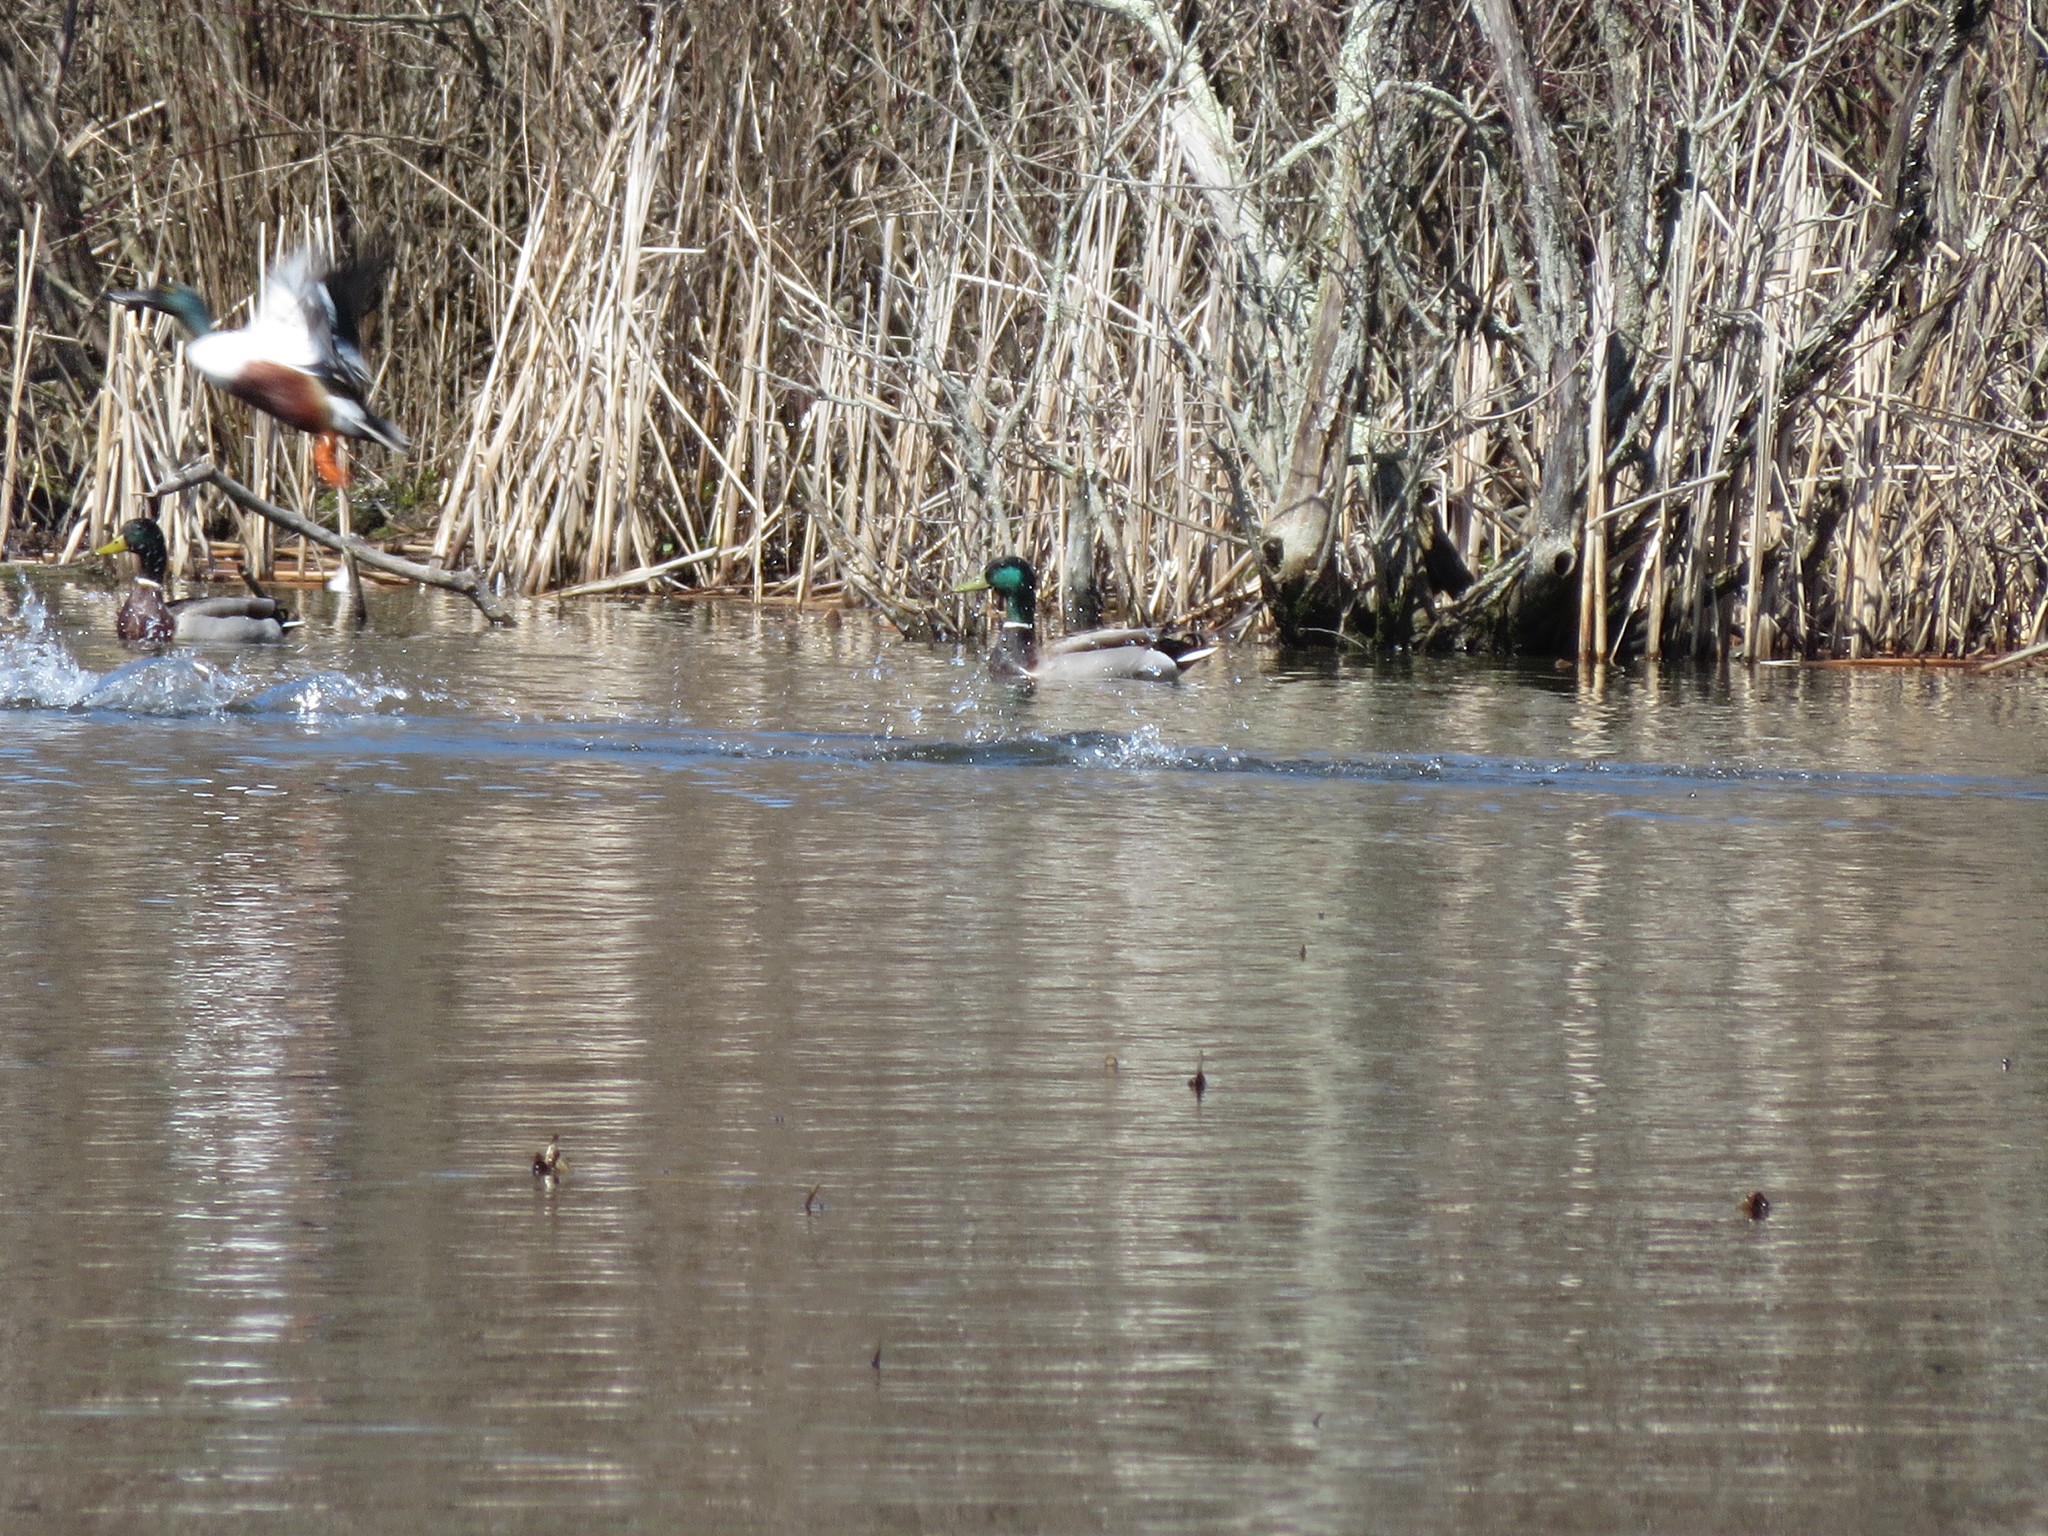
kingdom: Animalia
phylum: Chordata
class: Aves
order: Anseriformes
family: Anatidae
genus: Spatula
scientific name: Spatula clypeata
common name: Northern shoveler
